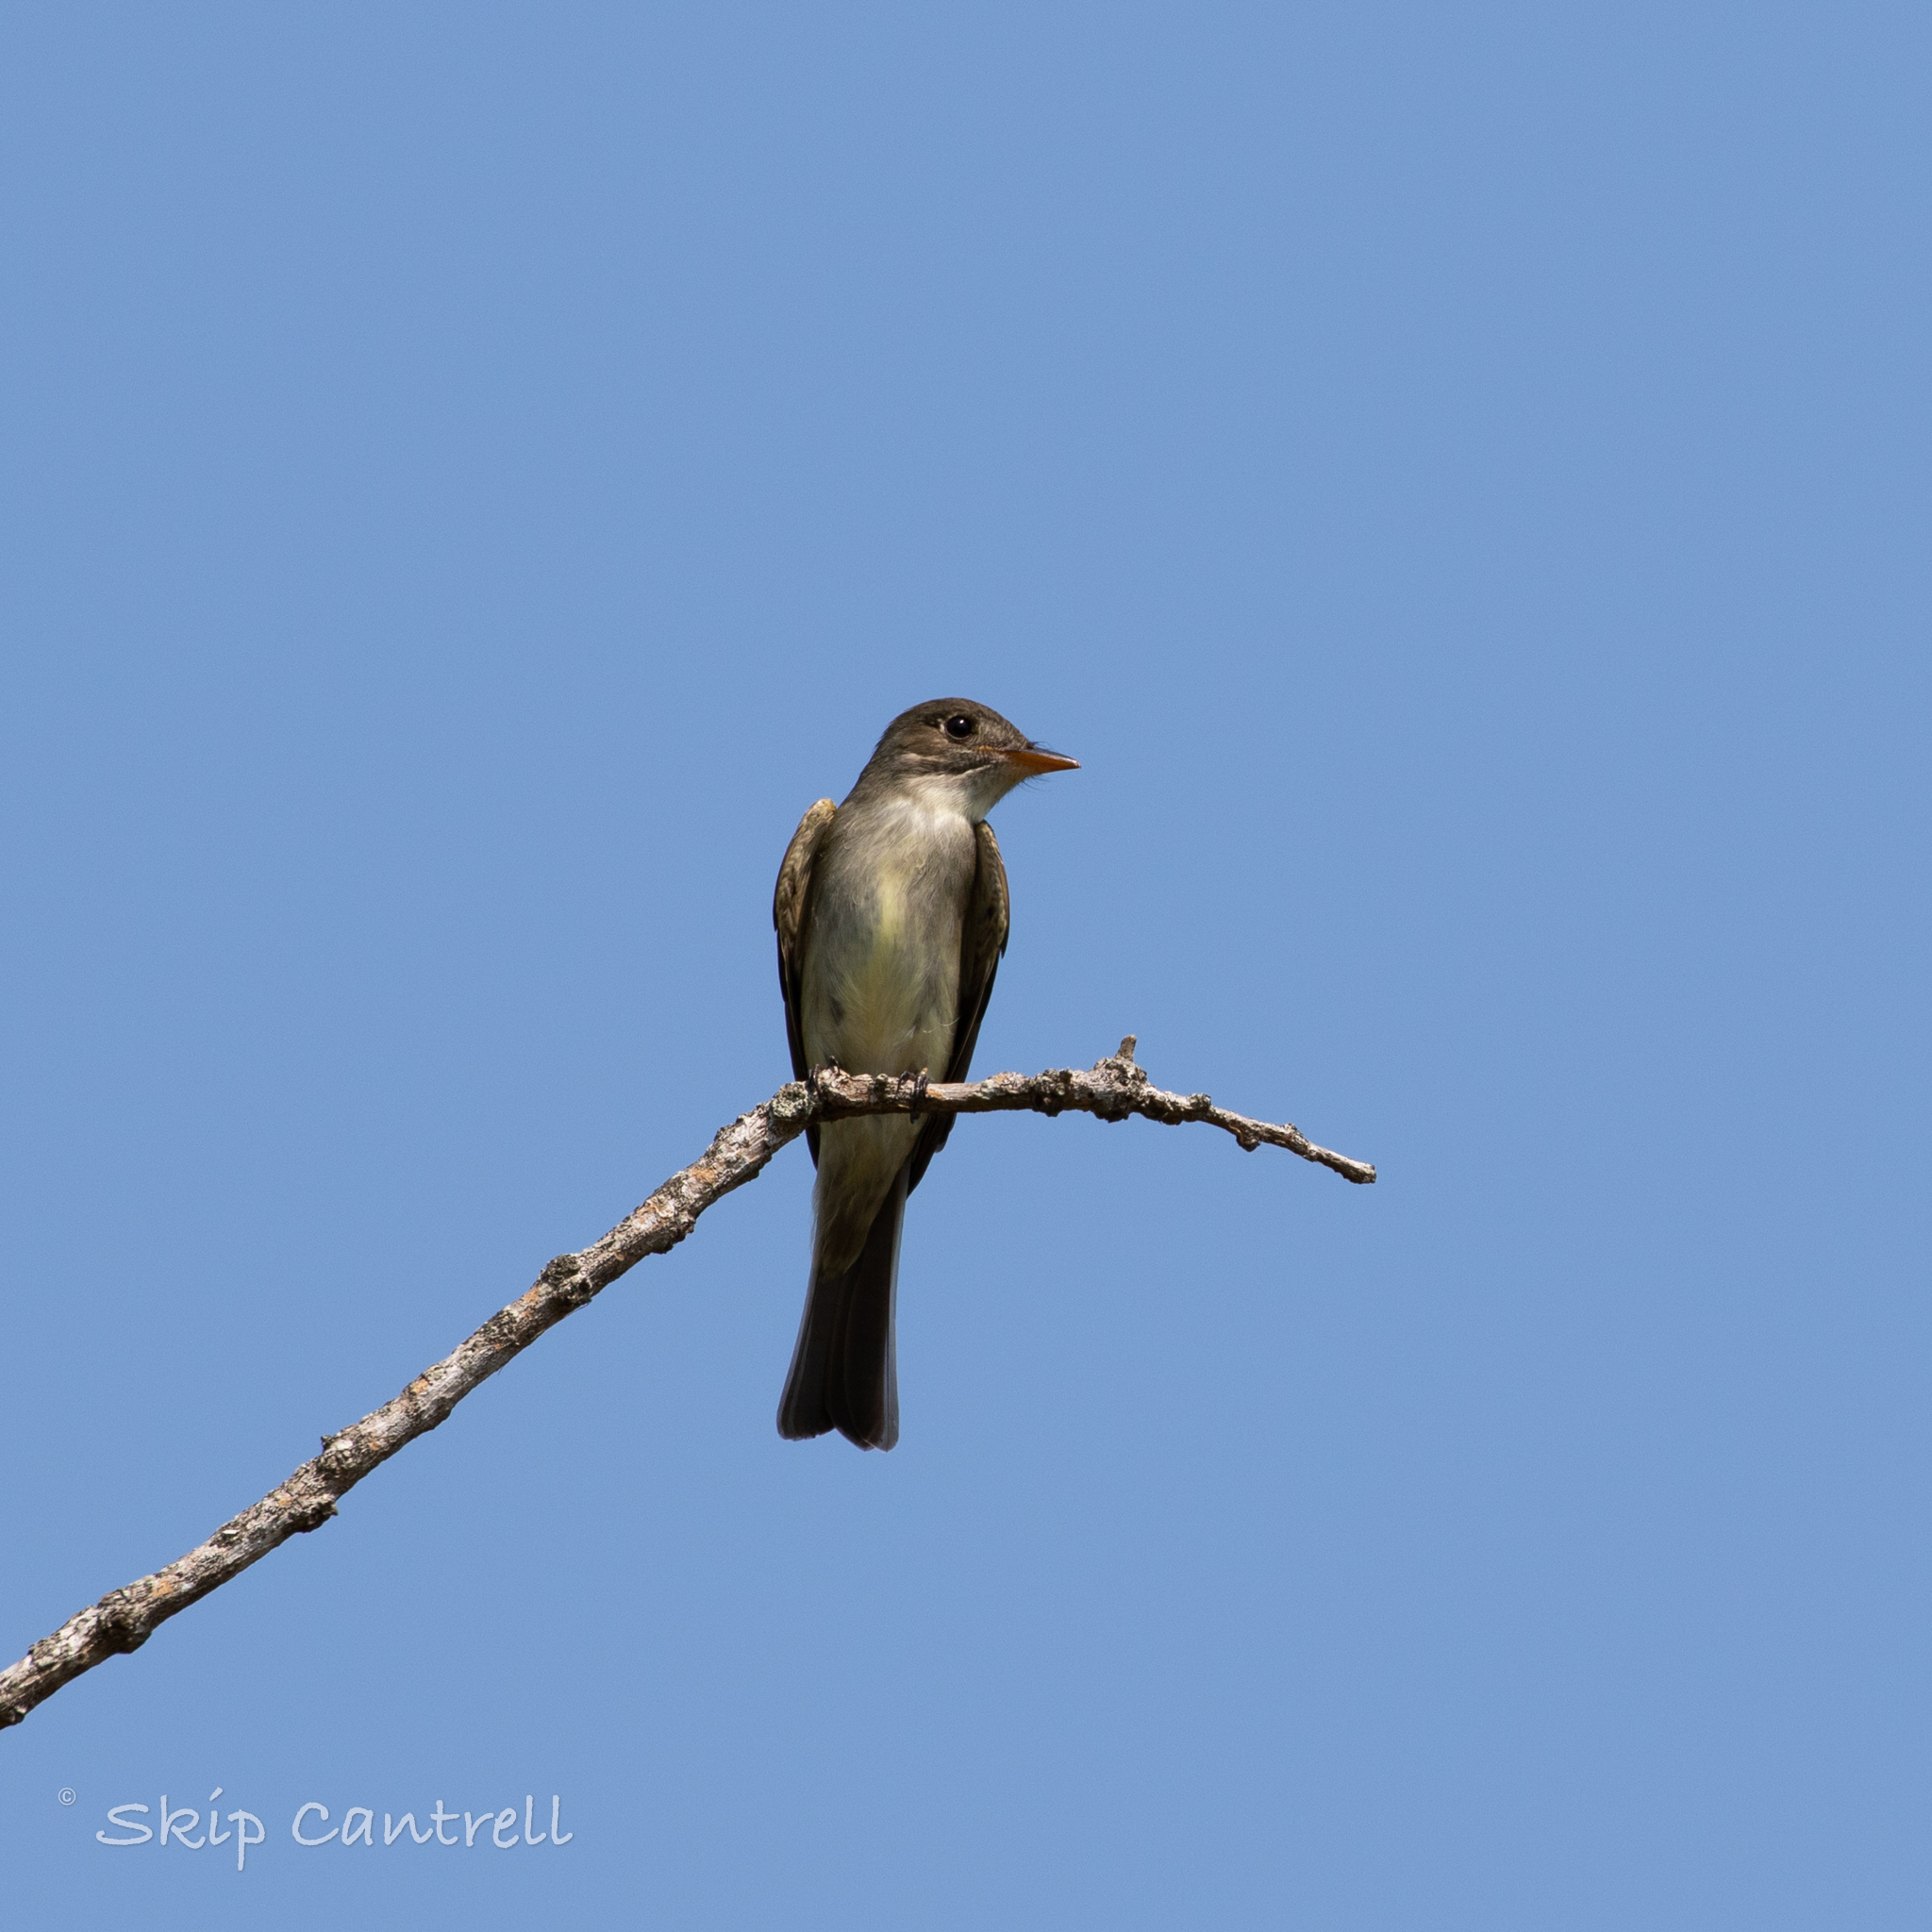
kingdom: Animalia
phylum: Chordata
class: Aves
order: Passeriformes
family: Tyrannidae
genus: Contopus
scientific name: Contopus virens
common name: Eastern wood-pewee
